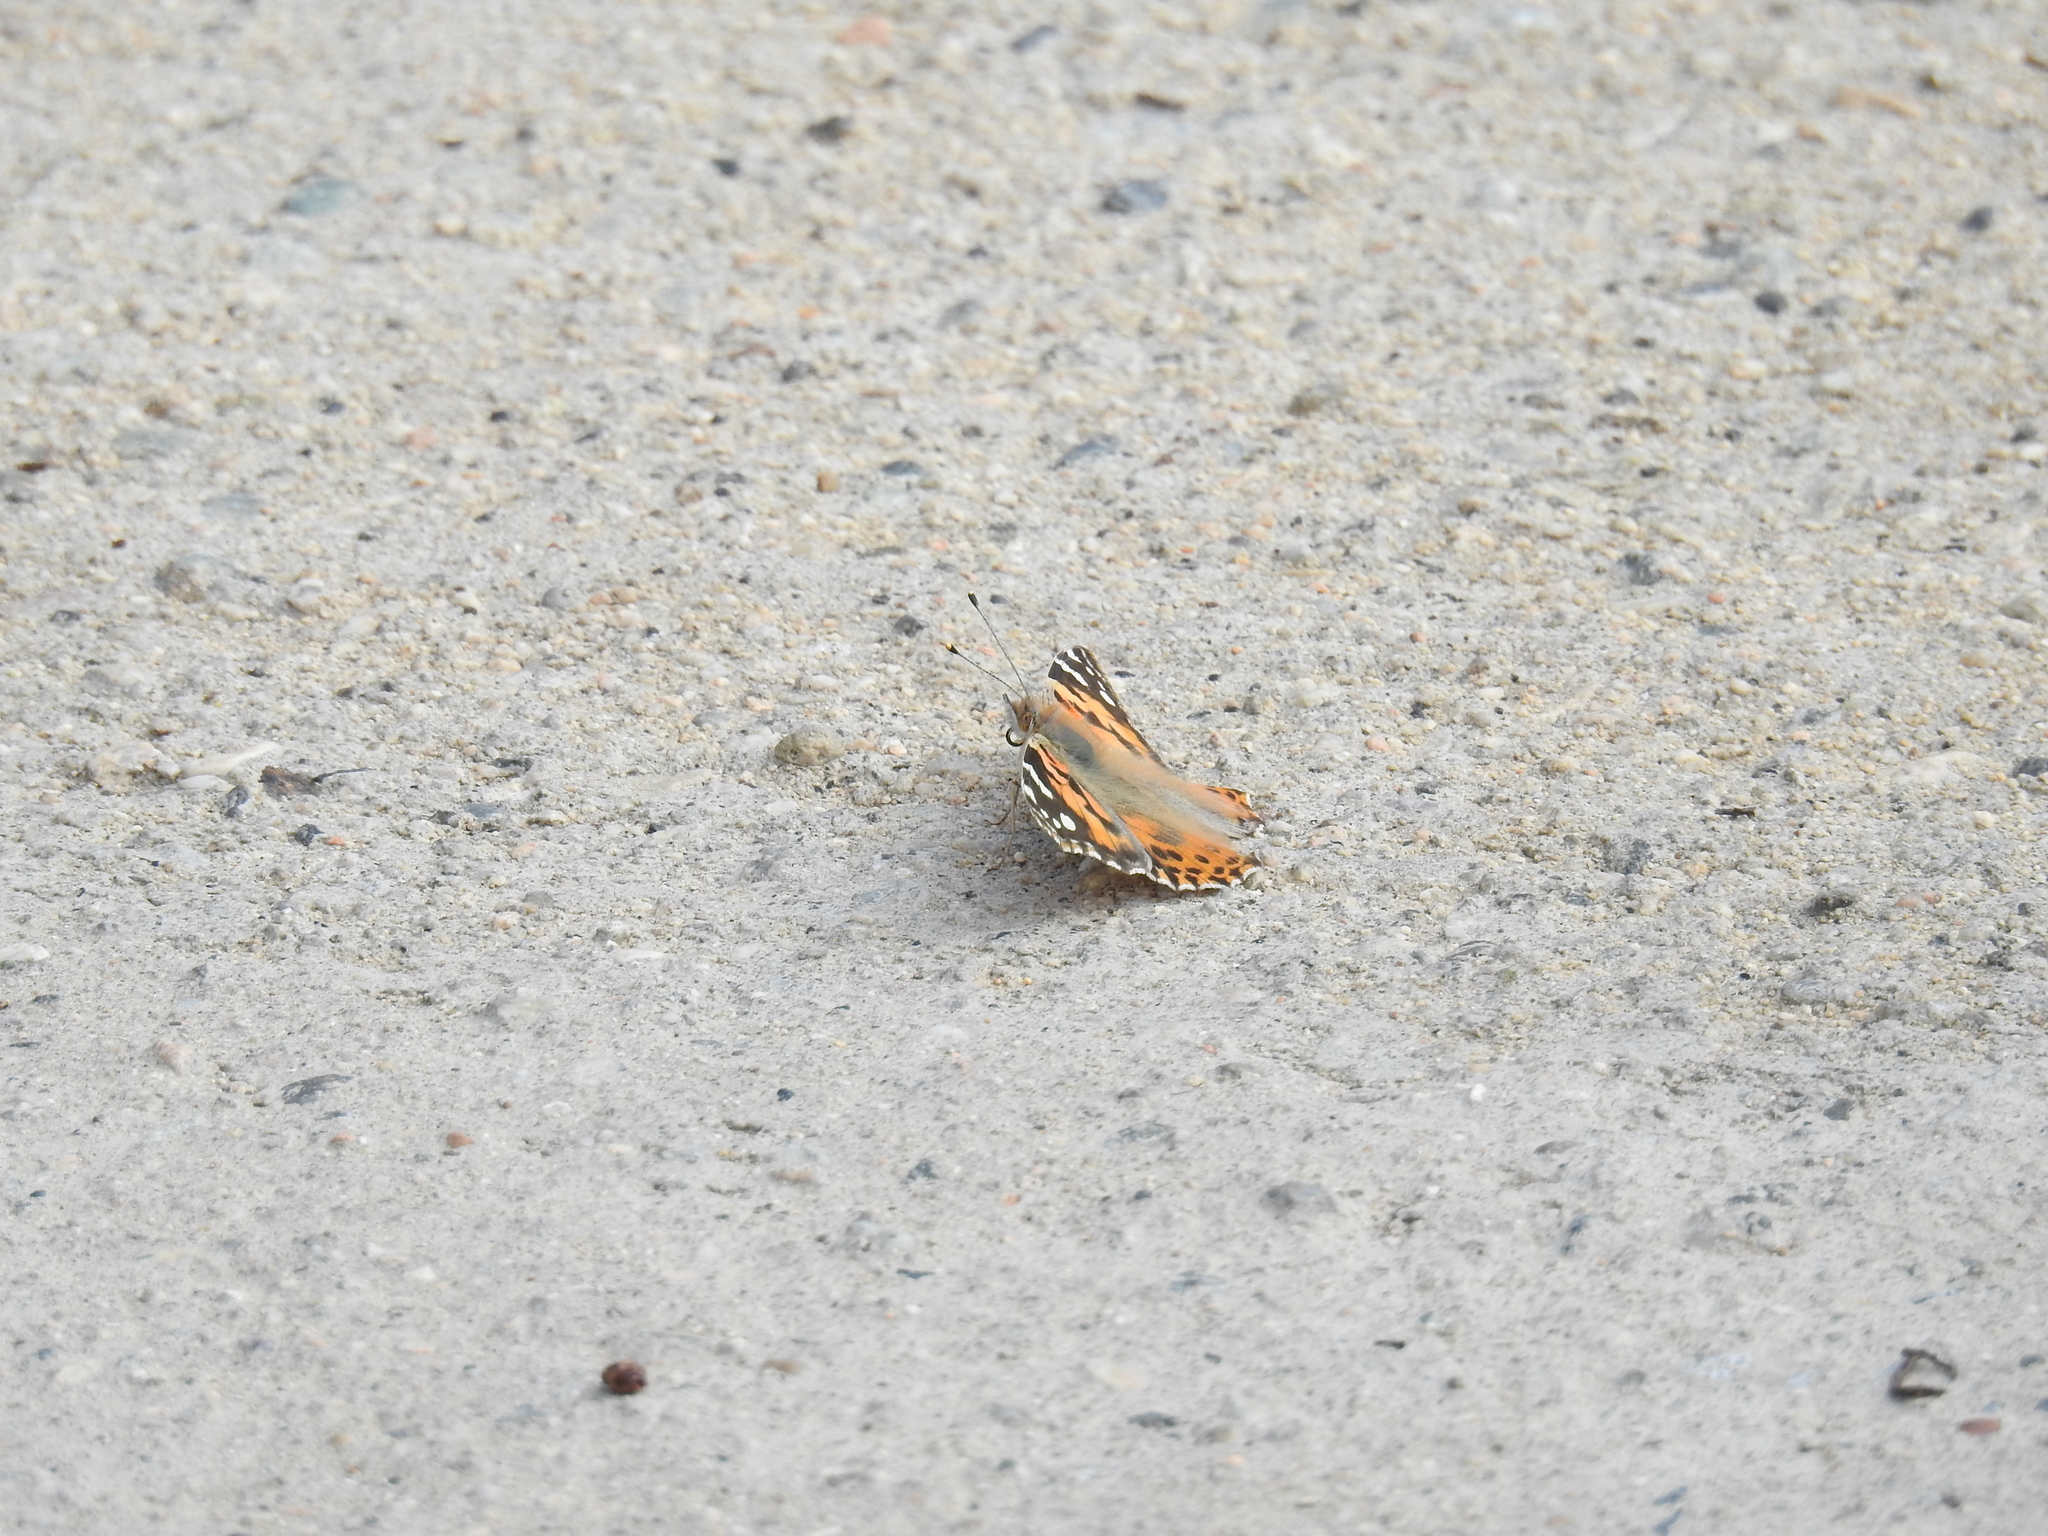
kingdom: Animalia
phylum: Arthropoda
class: Insecta
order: Lepidoptera
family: Nymphalidae
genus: Vanessa
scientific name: Vanessa cardui
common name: Painted lady
